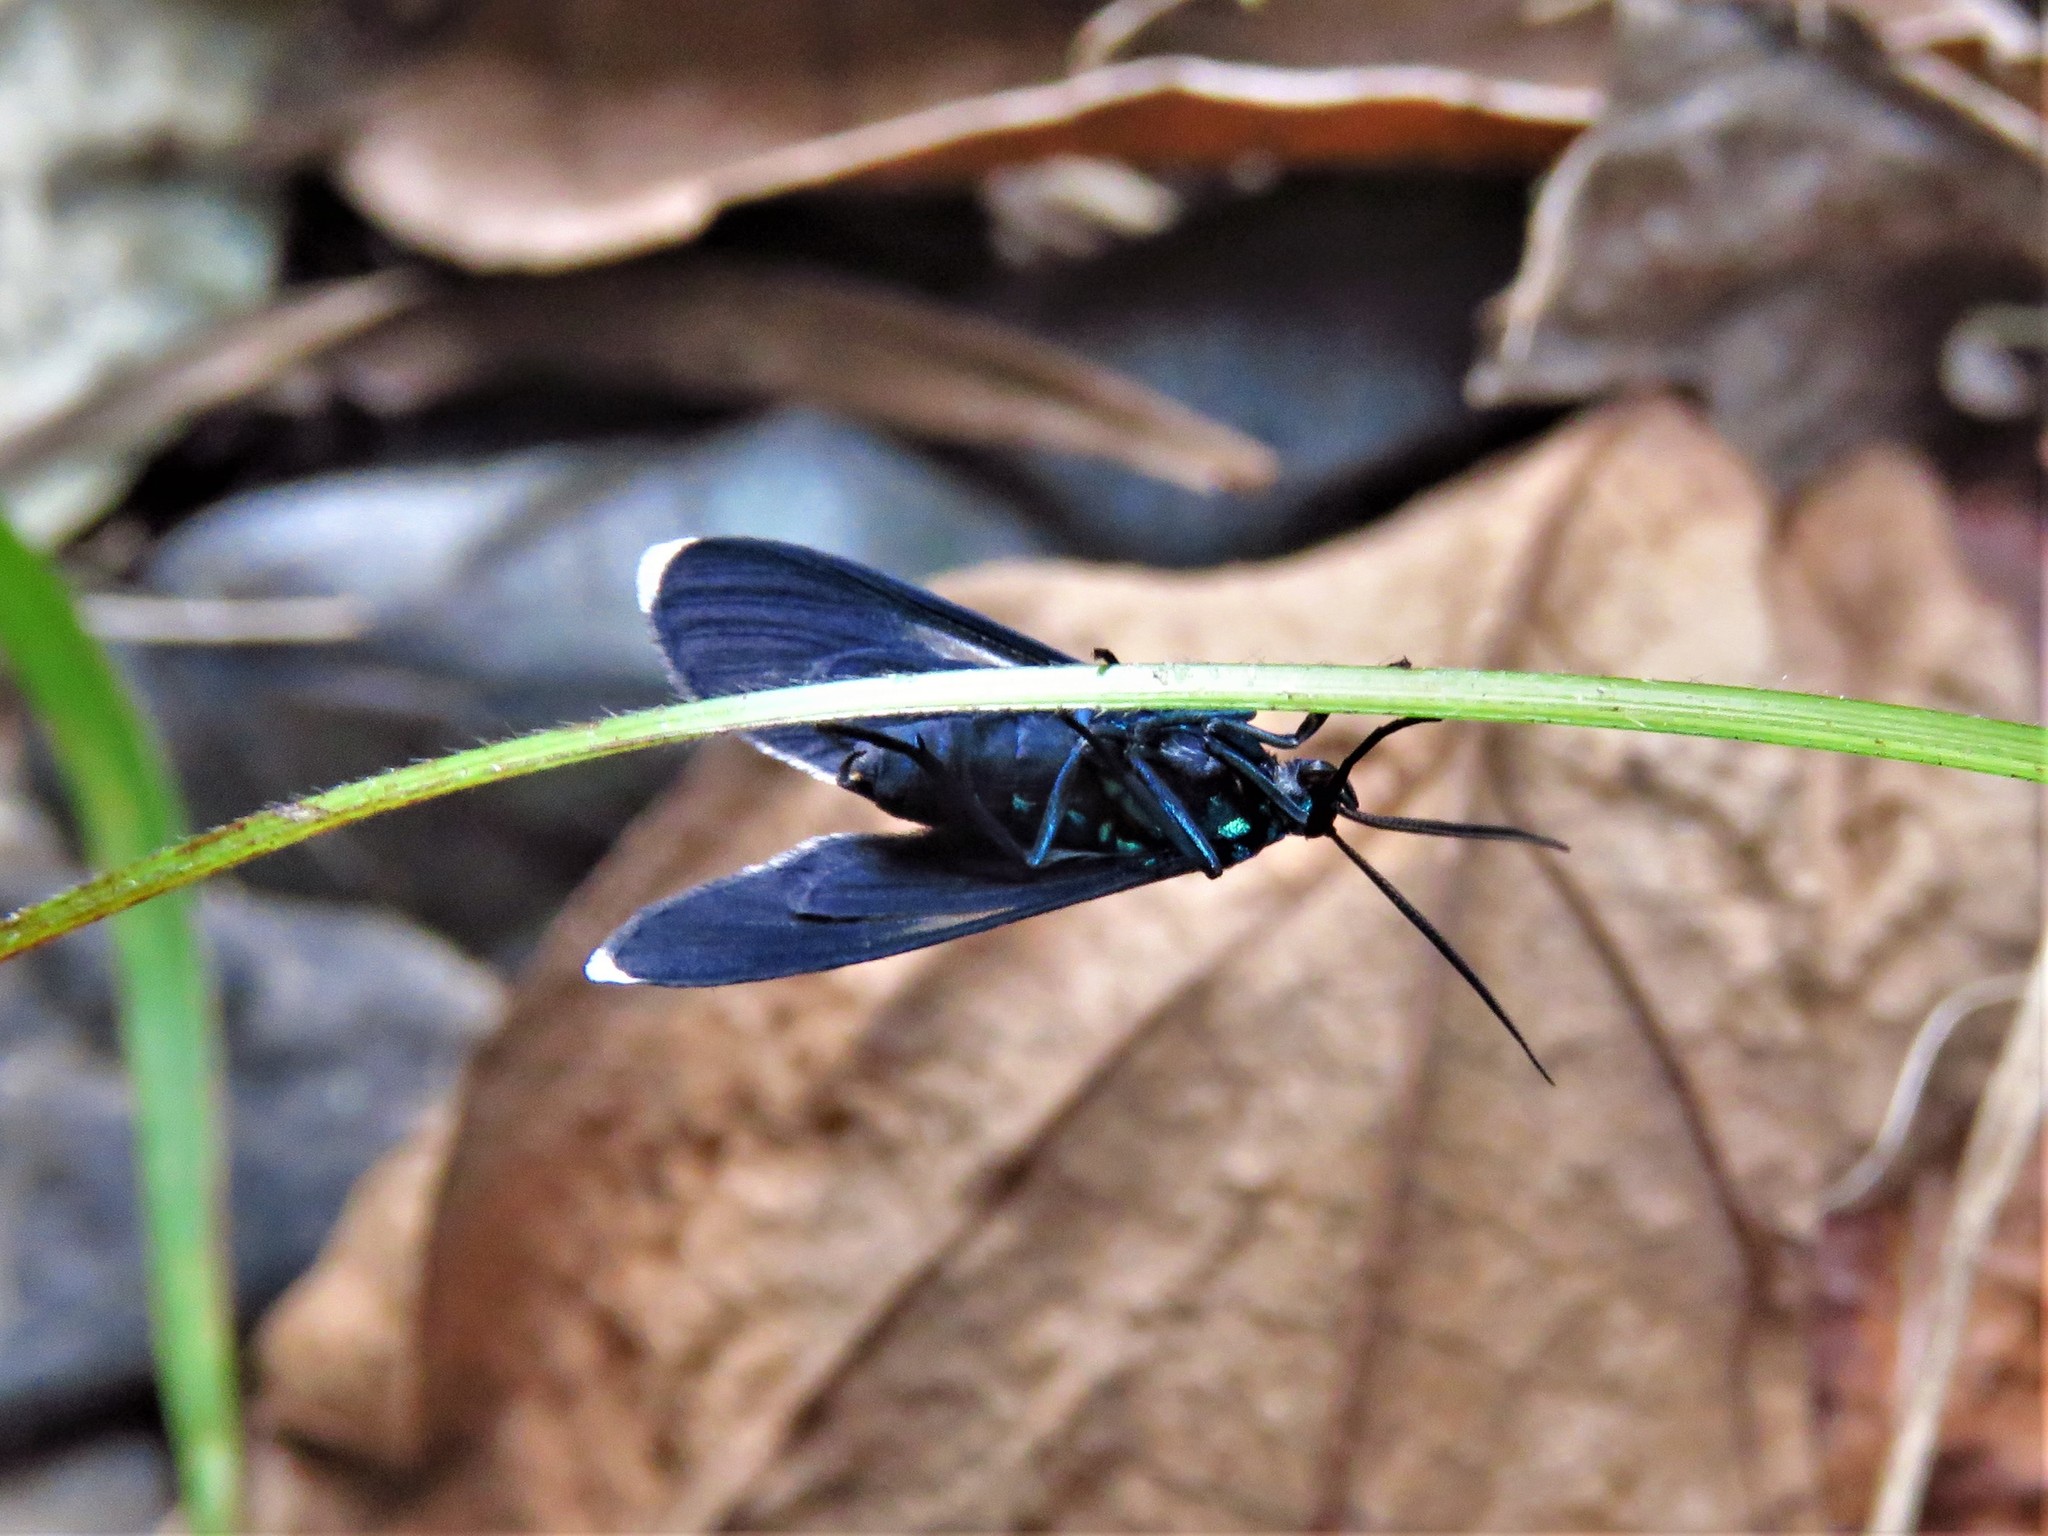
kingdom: Animalia
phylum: Arthropoda
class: Insecta
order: Lepidoptera
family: Erebidae
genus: Uranophora
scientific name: Uranophora leucotela
